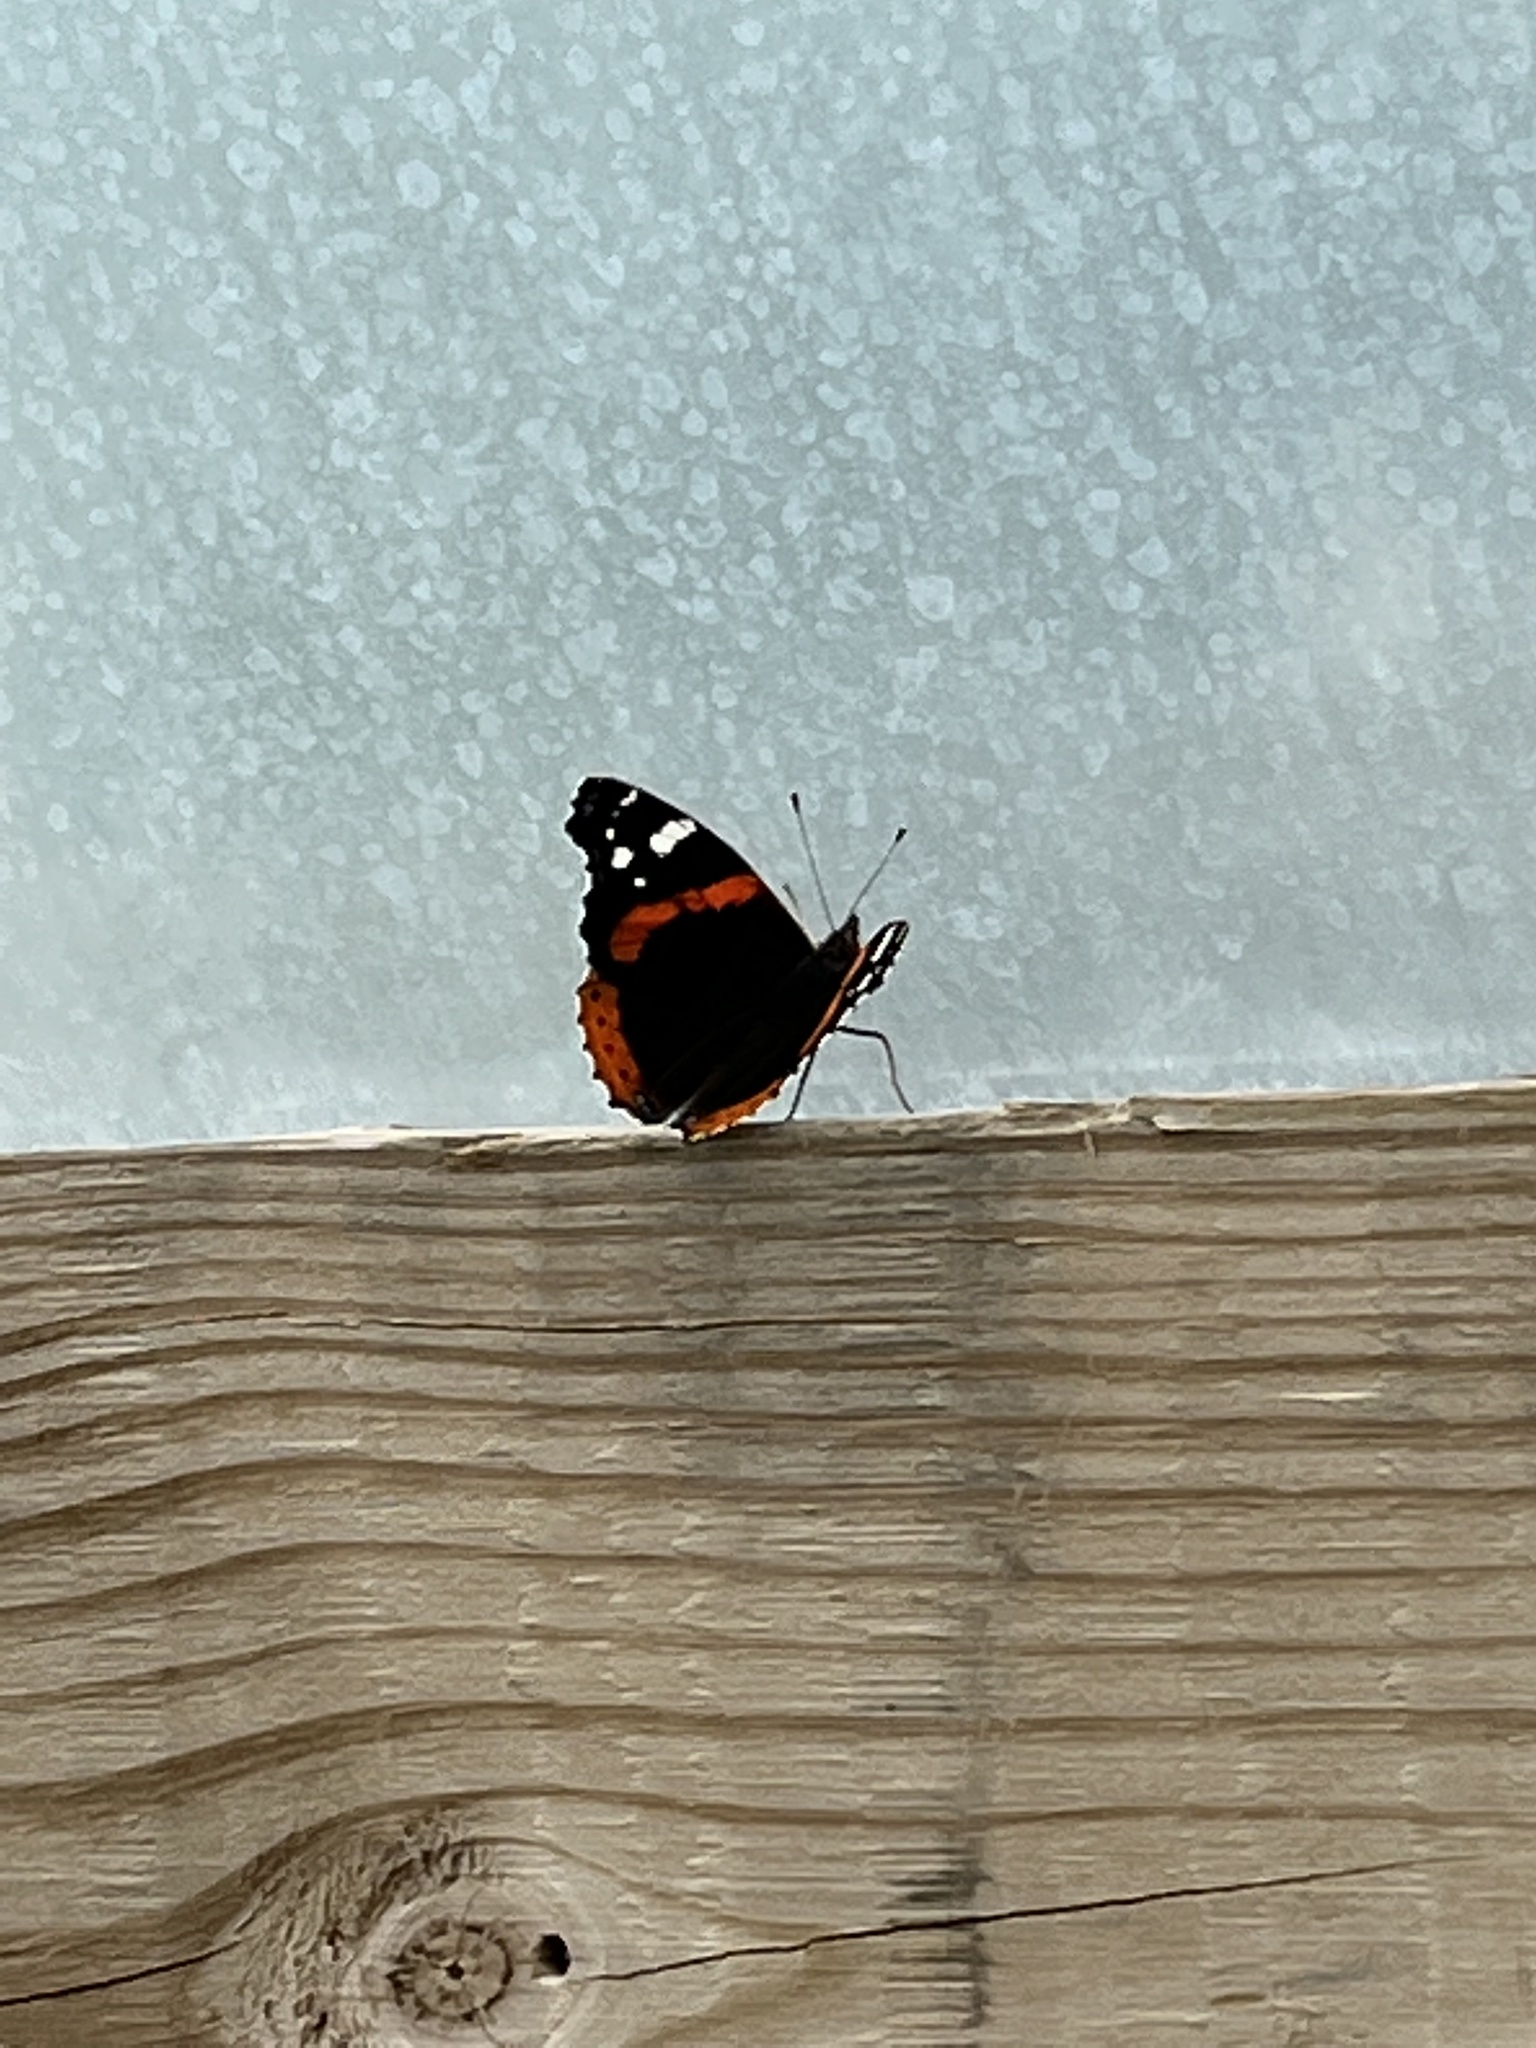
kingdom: Animalia
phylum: Arthropoda
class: Insecta
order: Lepidoptera
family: Nymphalidae
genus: Vanessa
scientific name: Vanessa atalanta
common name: Red admiral
